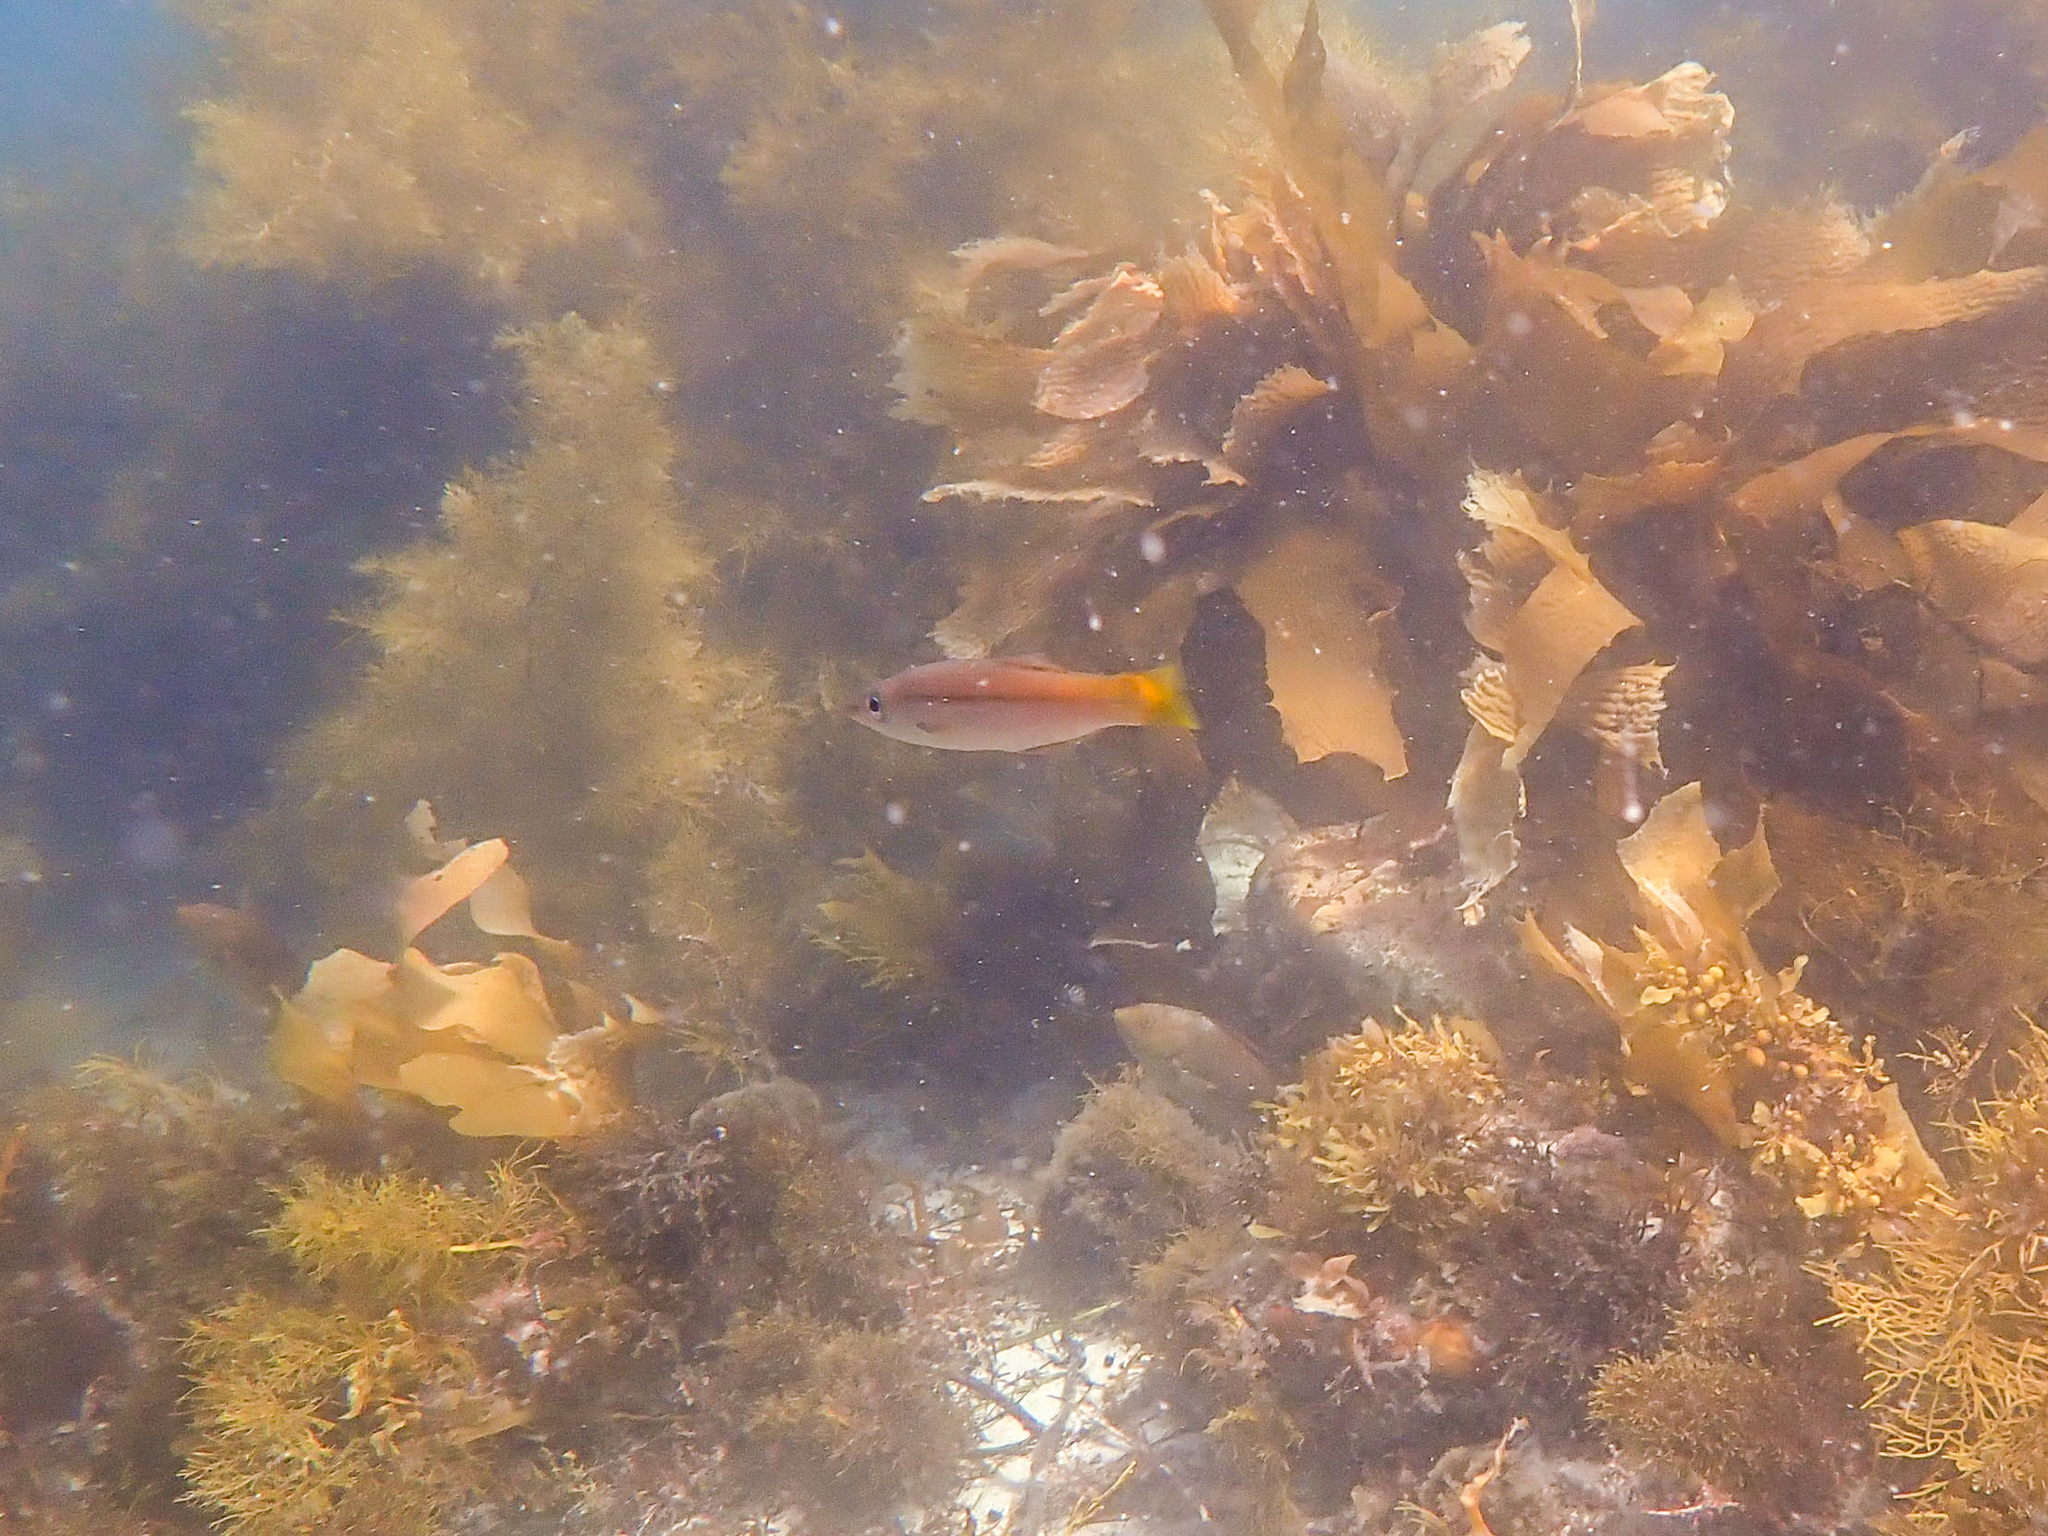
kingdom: Animalia
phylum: Chordata
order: Perciformes
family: Dinolestidae
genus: Dinolestes
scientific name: Dinolestes lewini
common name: Jack pike
